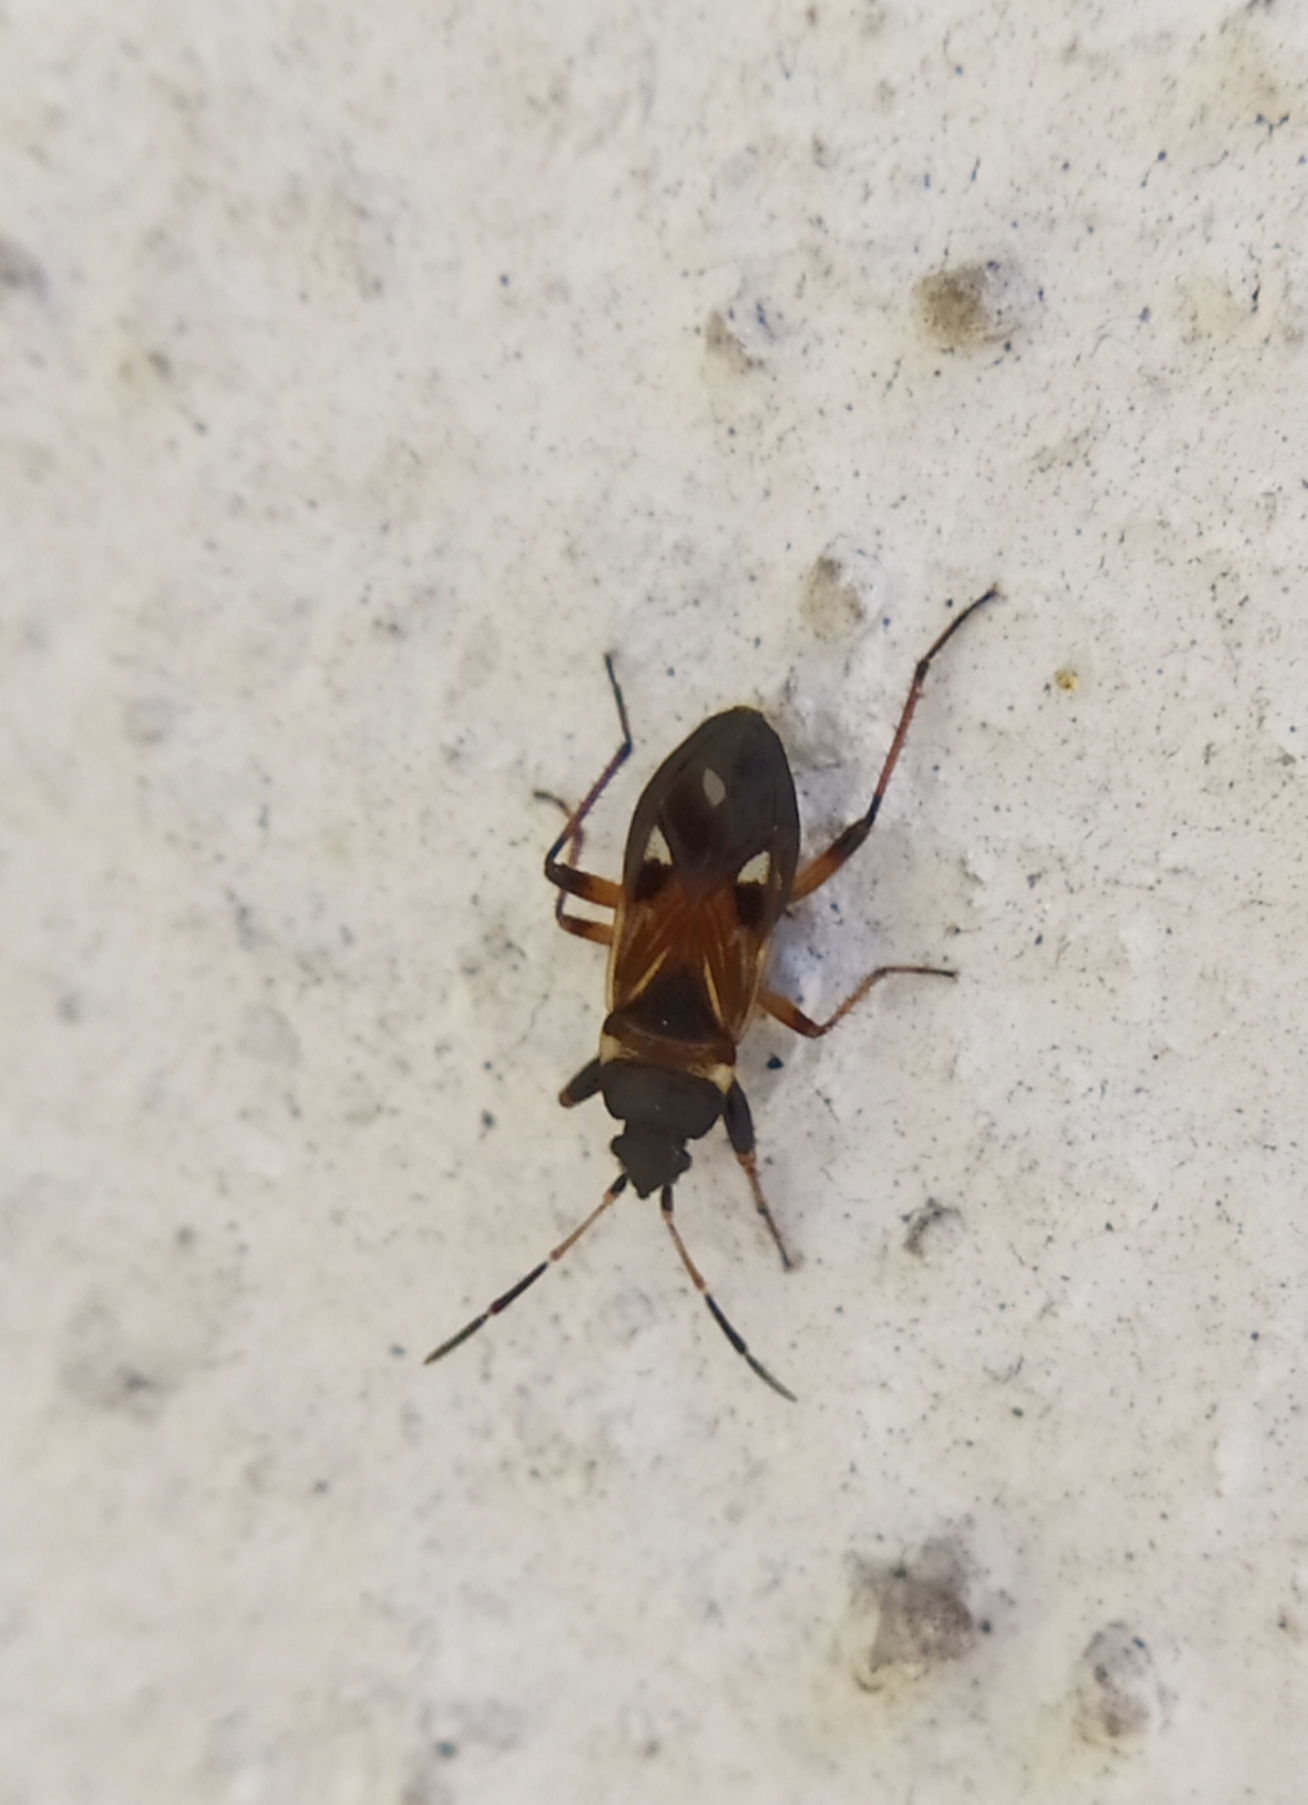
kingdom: Animalia
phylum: Arthropoda
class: Insecta
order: Hemiptera
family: Rhyparochromidae
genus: Raglius
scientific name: Raglius alboacuminatus
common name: Dirt-colored seed bug
